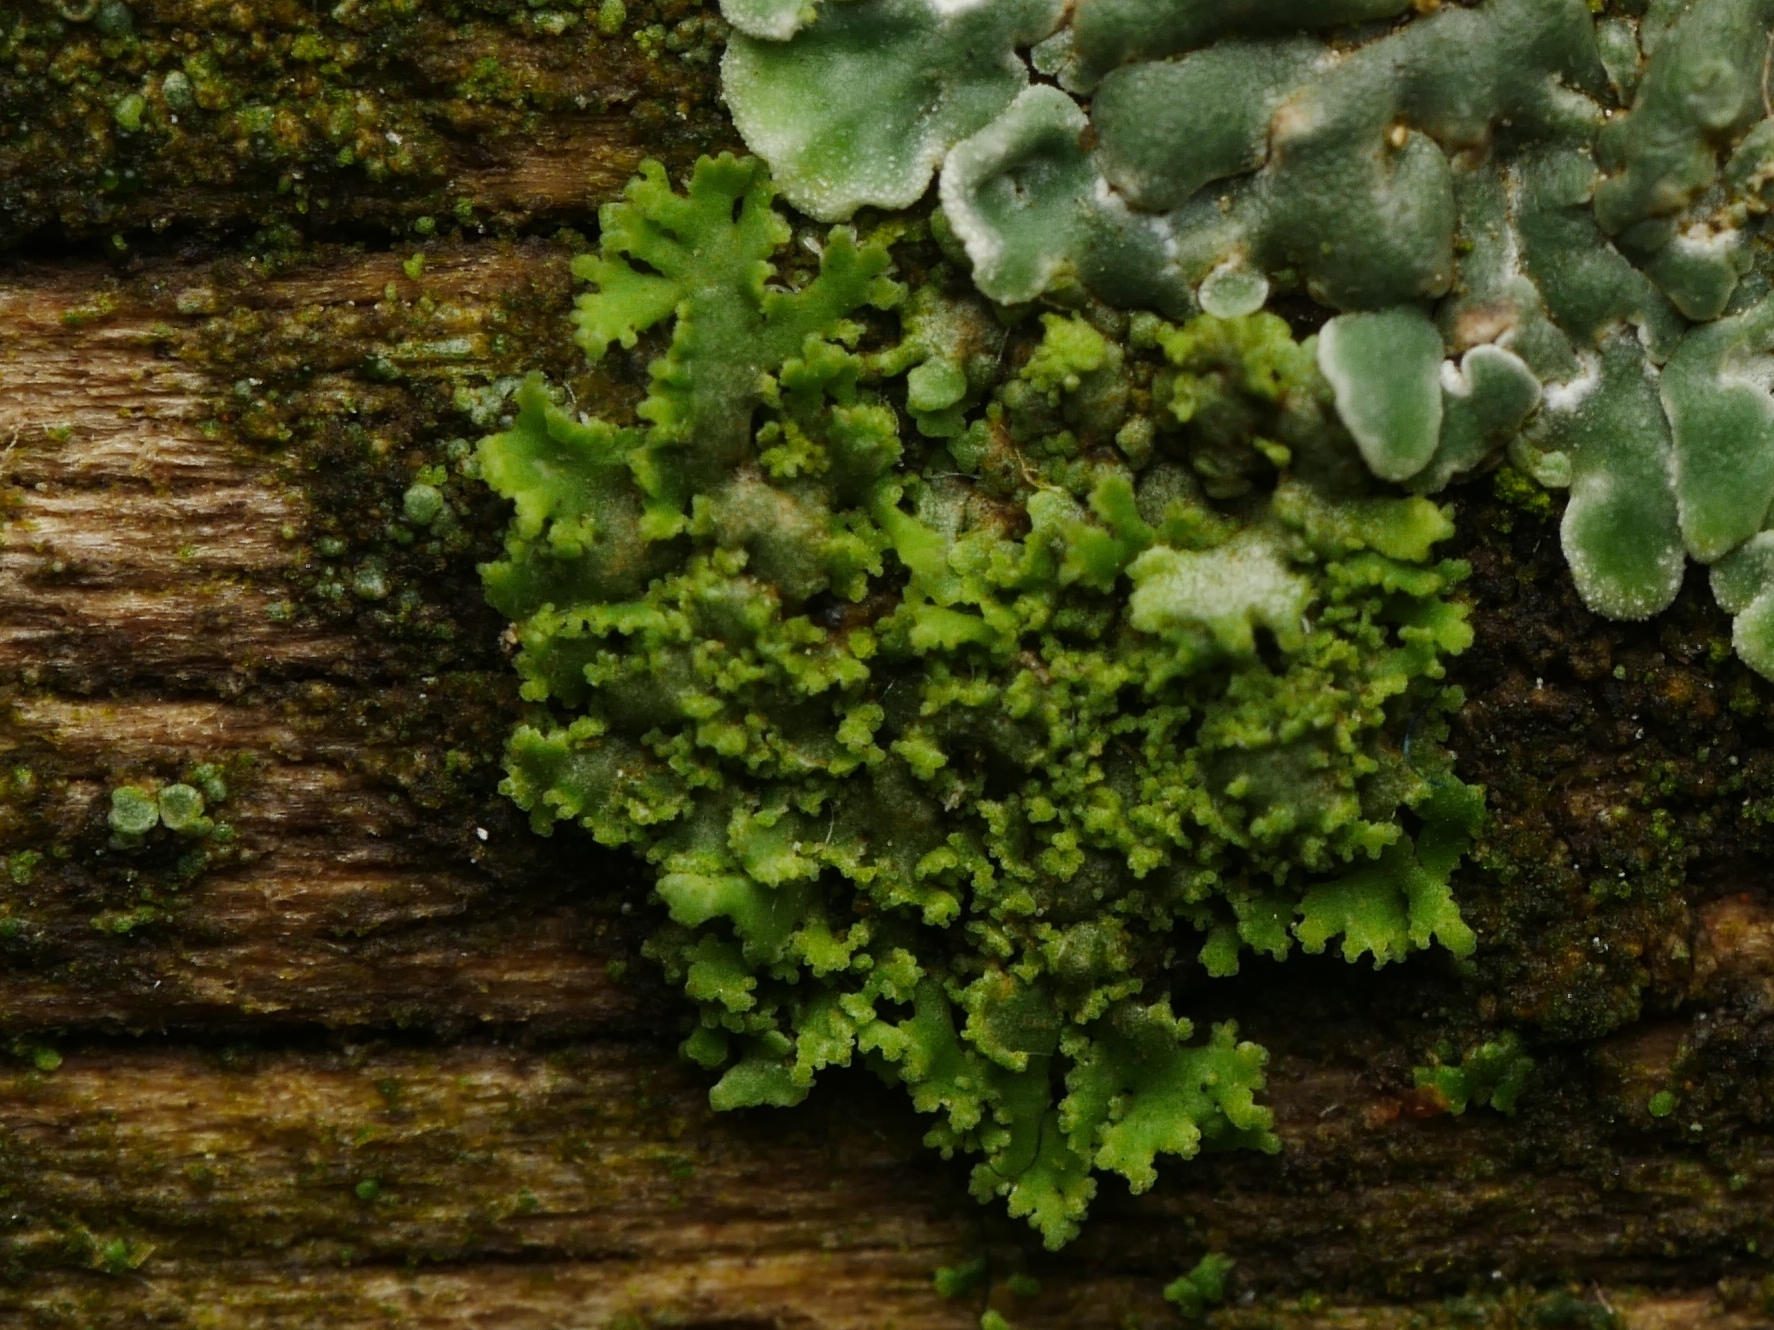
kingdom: Fungi
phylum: Ascomycota
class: Lecanoromycetes
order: Caliciales
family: Physciaceae
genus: Physciella
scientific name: Physciella nigricans
